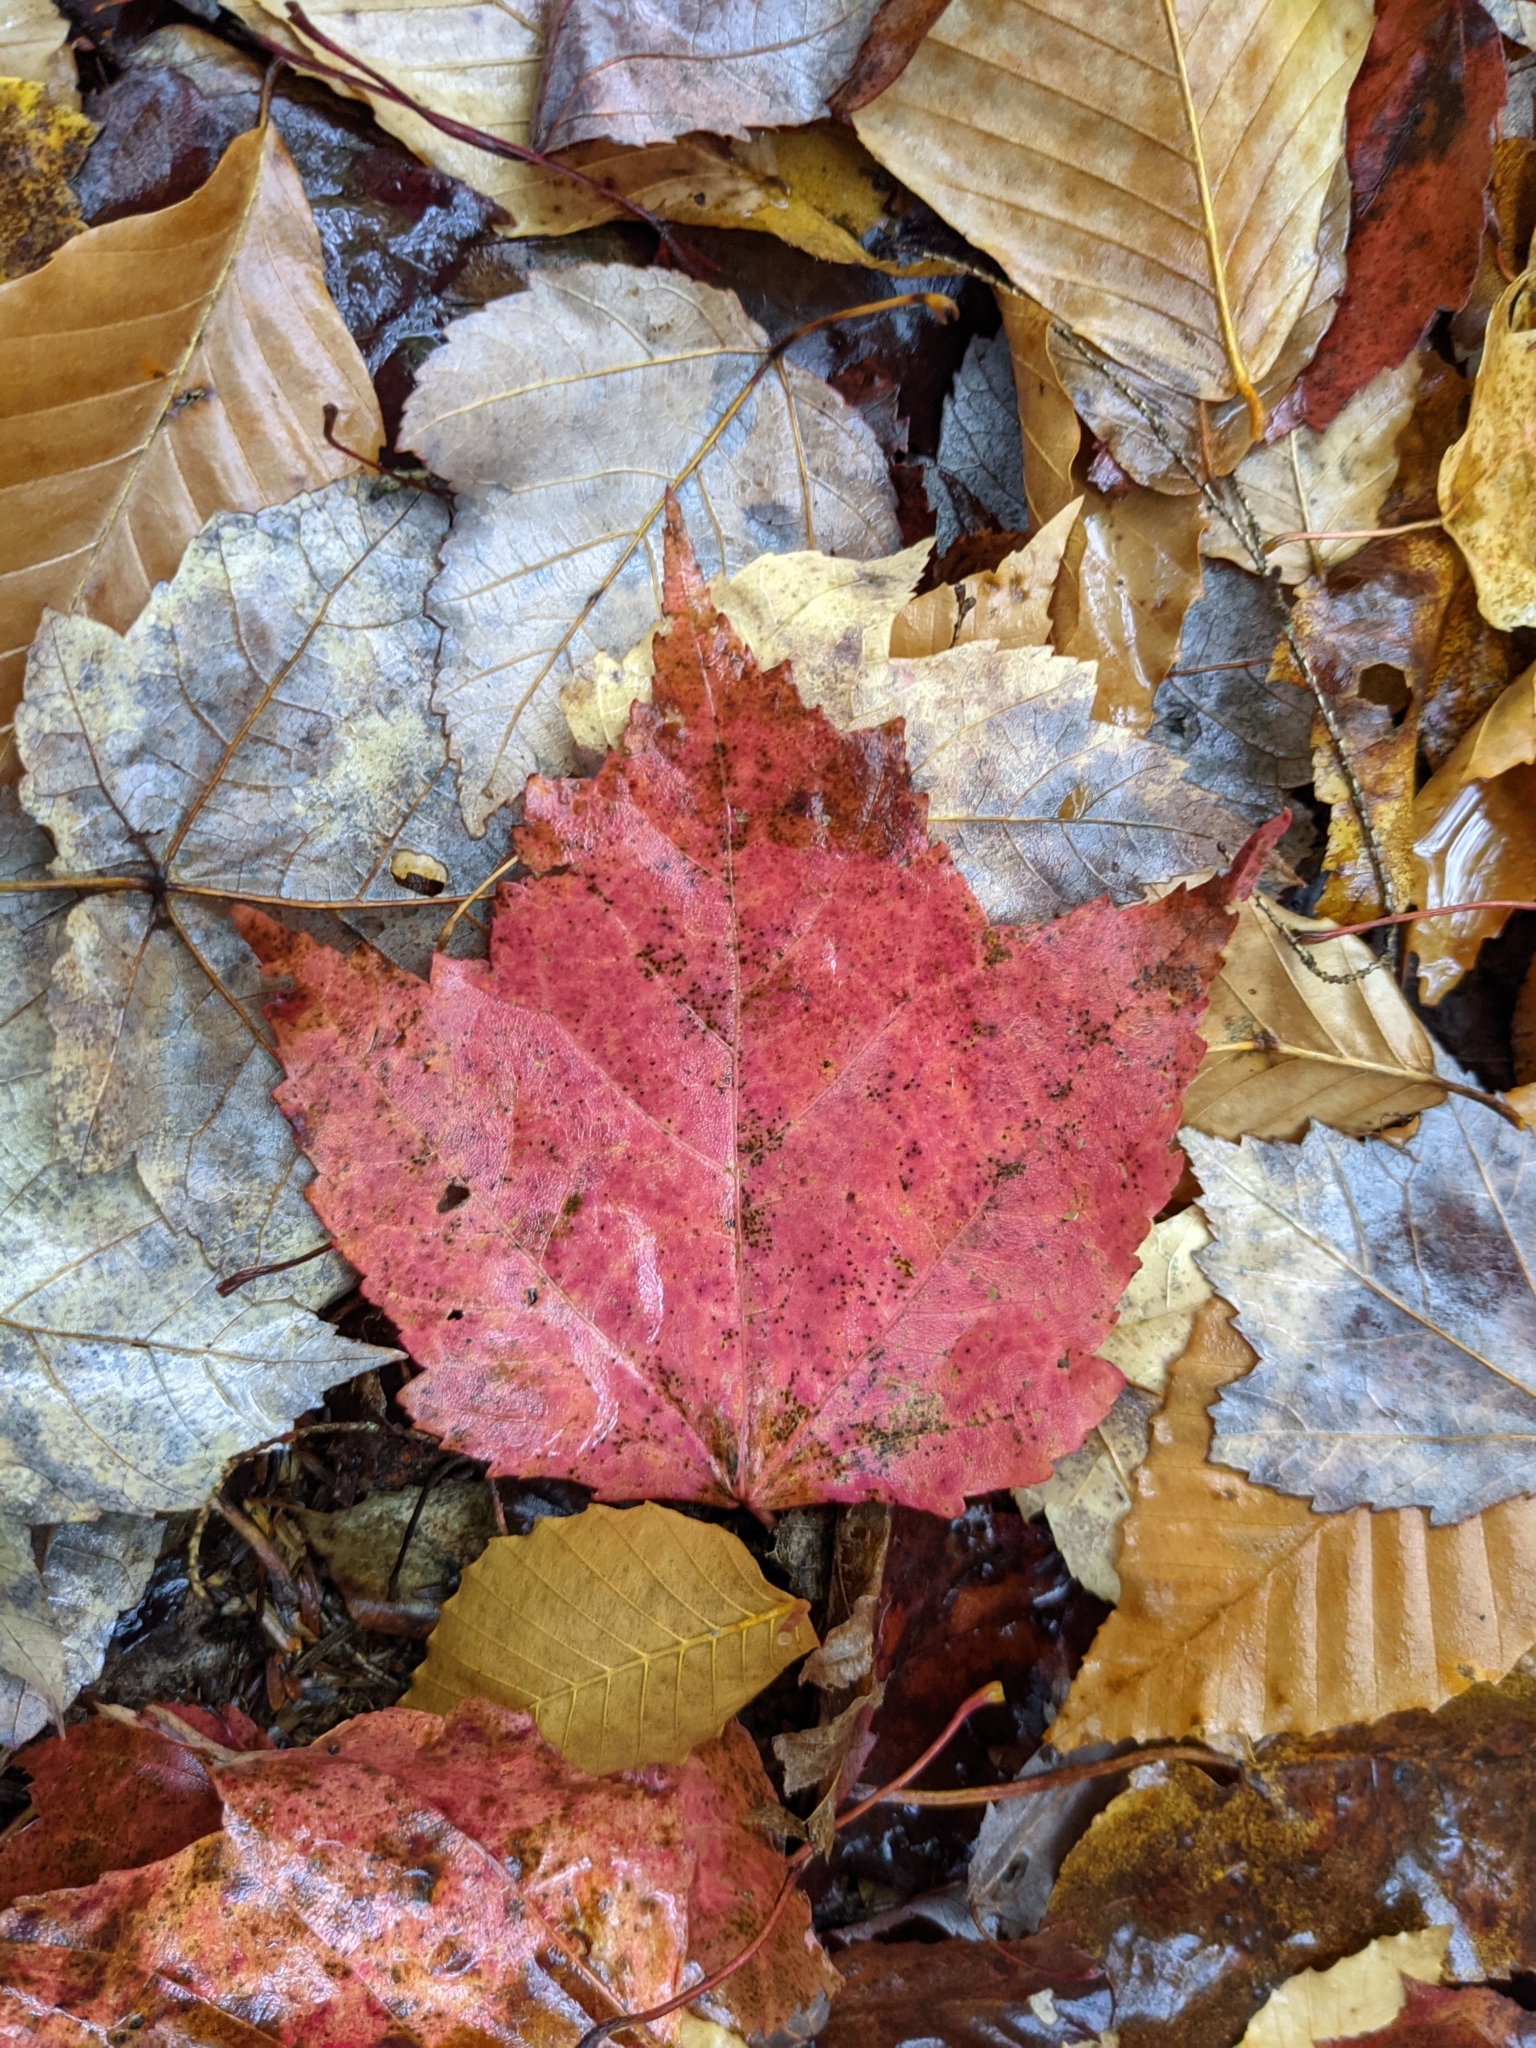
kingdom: Plantae
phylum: Tracheophyta
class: Magnoliopsida
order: Sapindales
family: Sapindaceae
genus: Acer
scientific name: Acer rubrum
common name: Red maple
